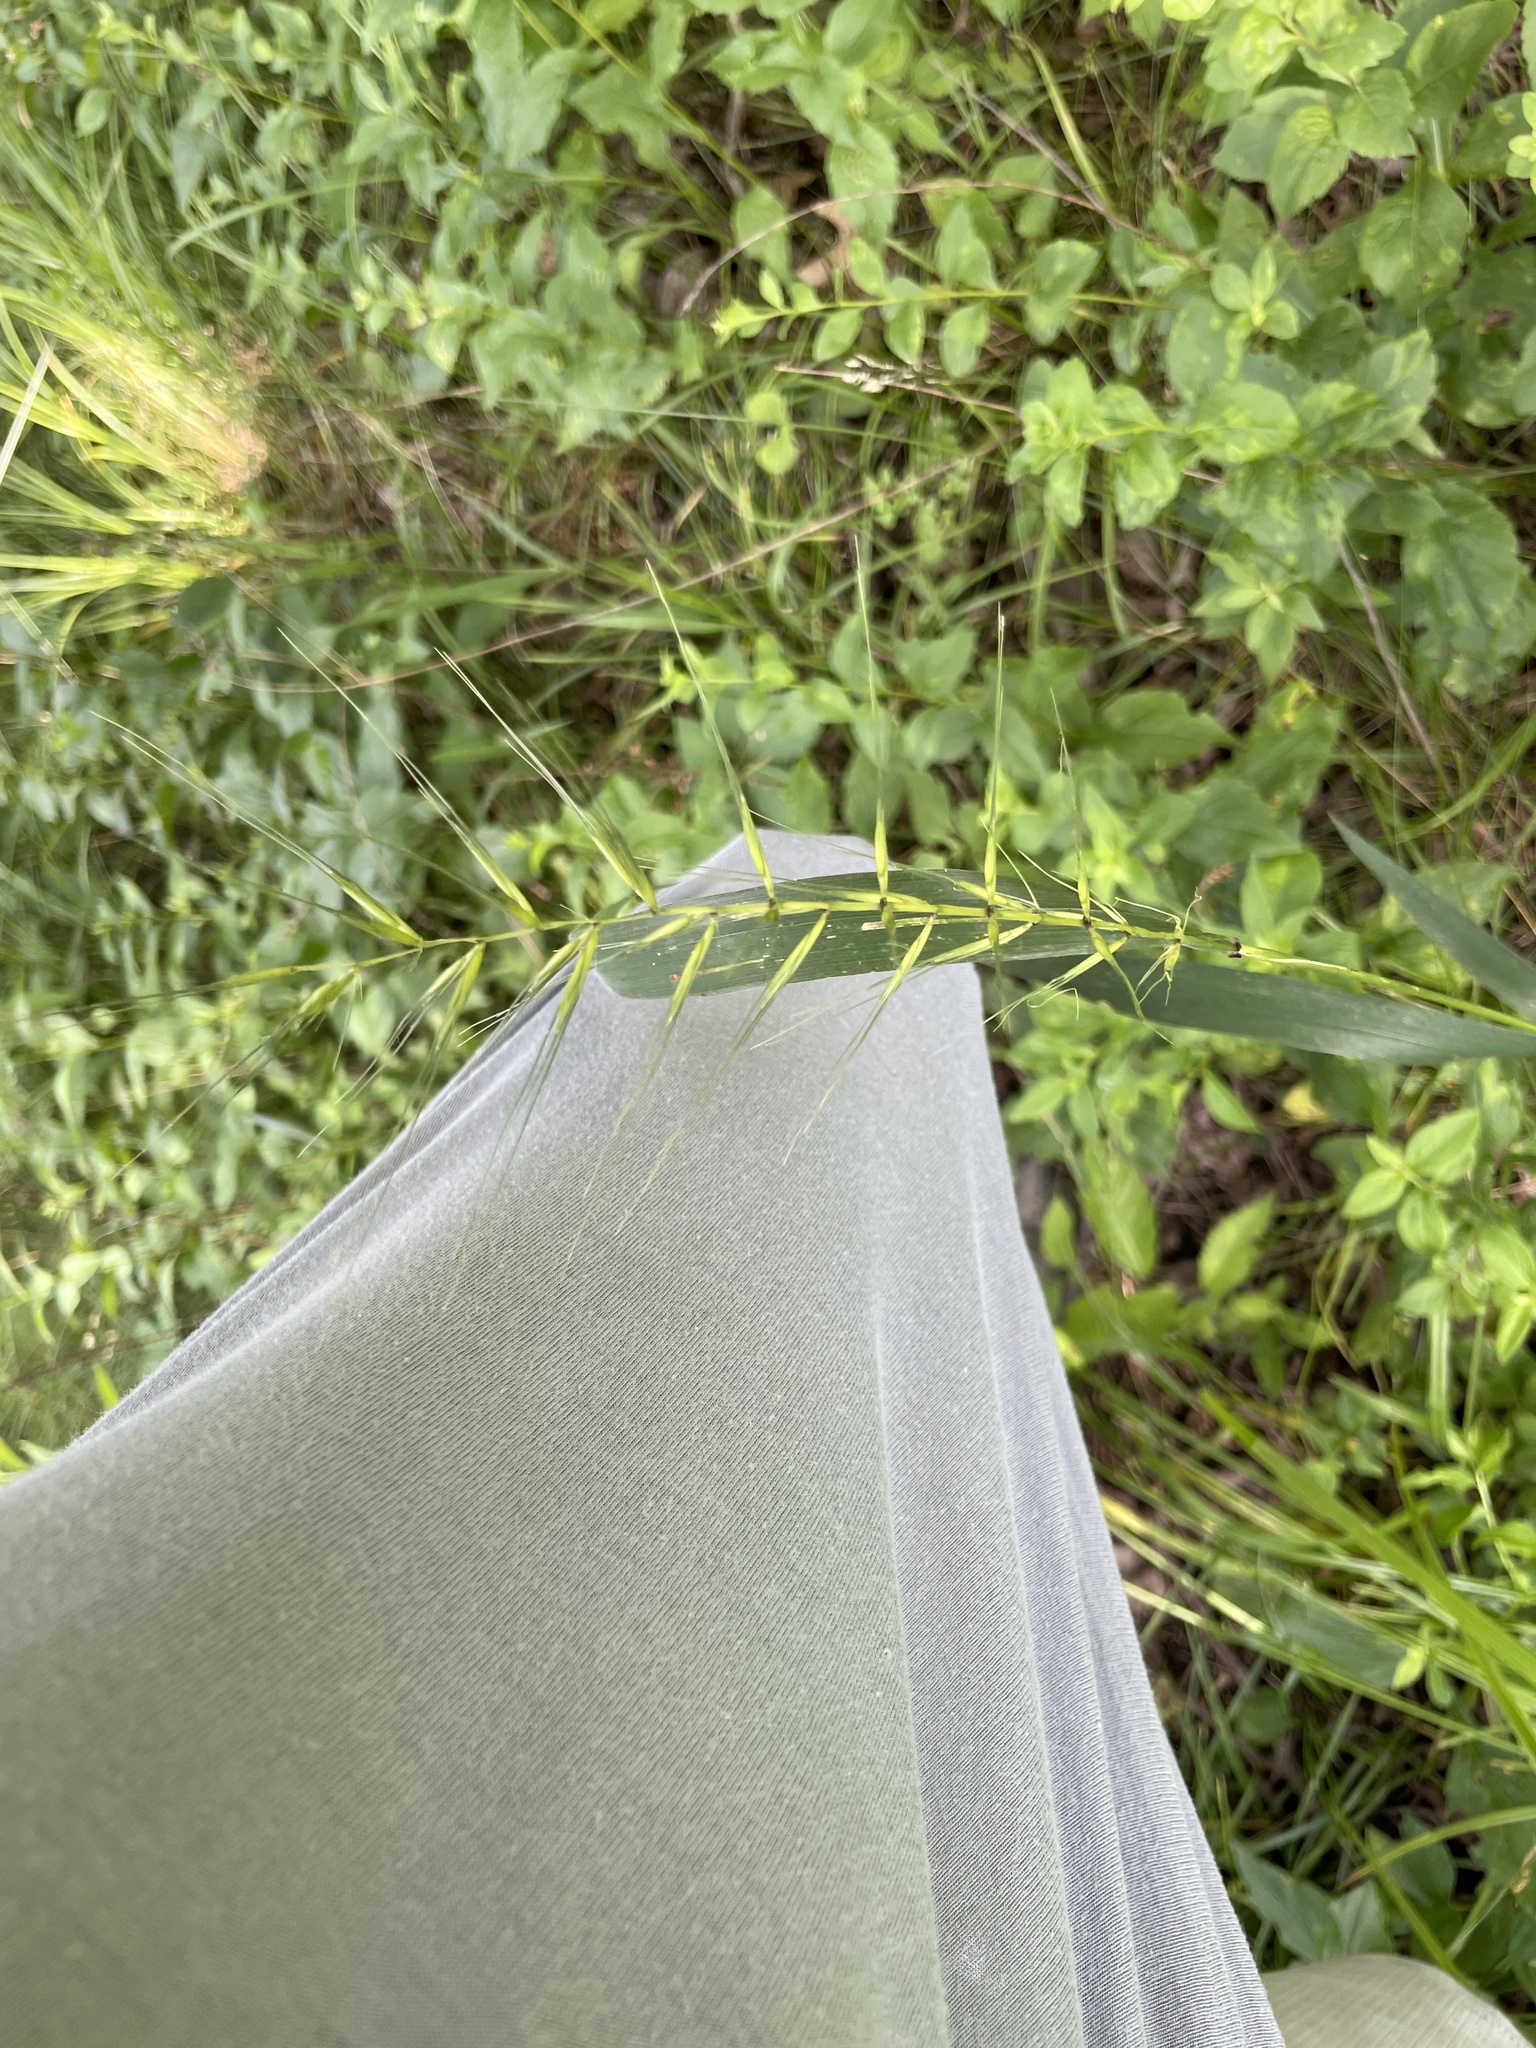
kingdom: Plantae
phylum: Tracheophyta
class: Liliopsida
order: Poales
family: Poaceae
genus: Elymus
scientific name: Elymus hystrix
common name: Bottlebrush grass
